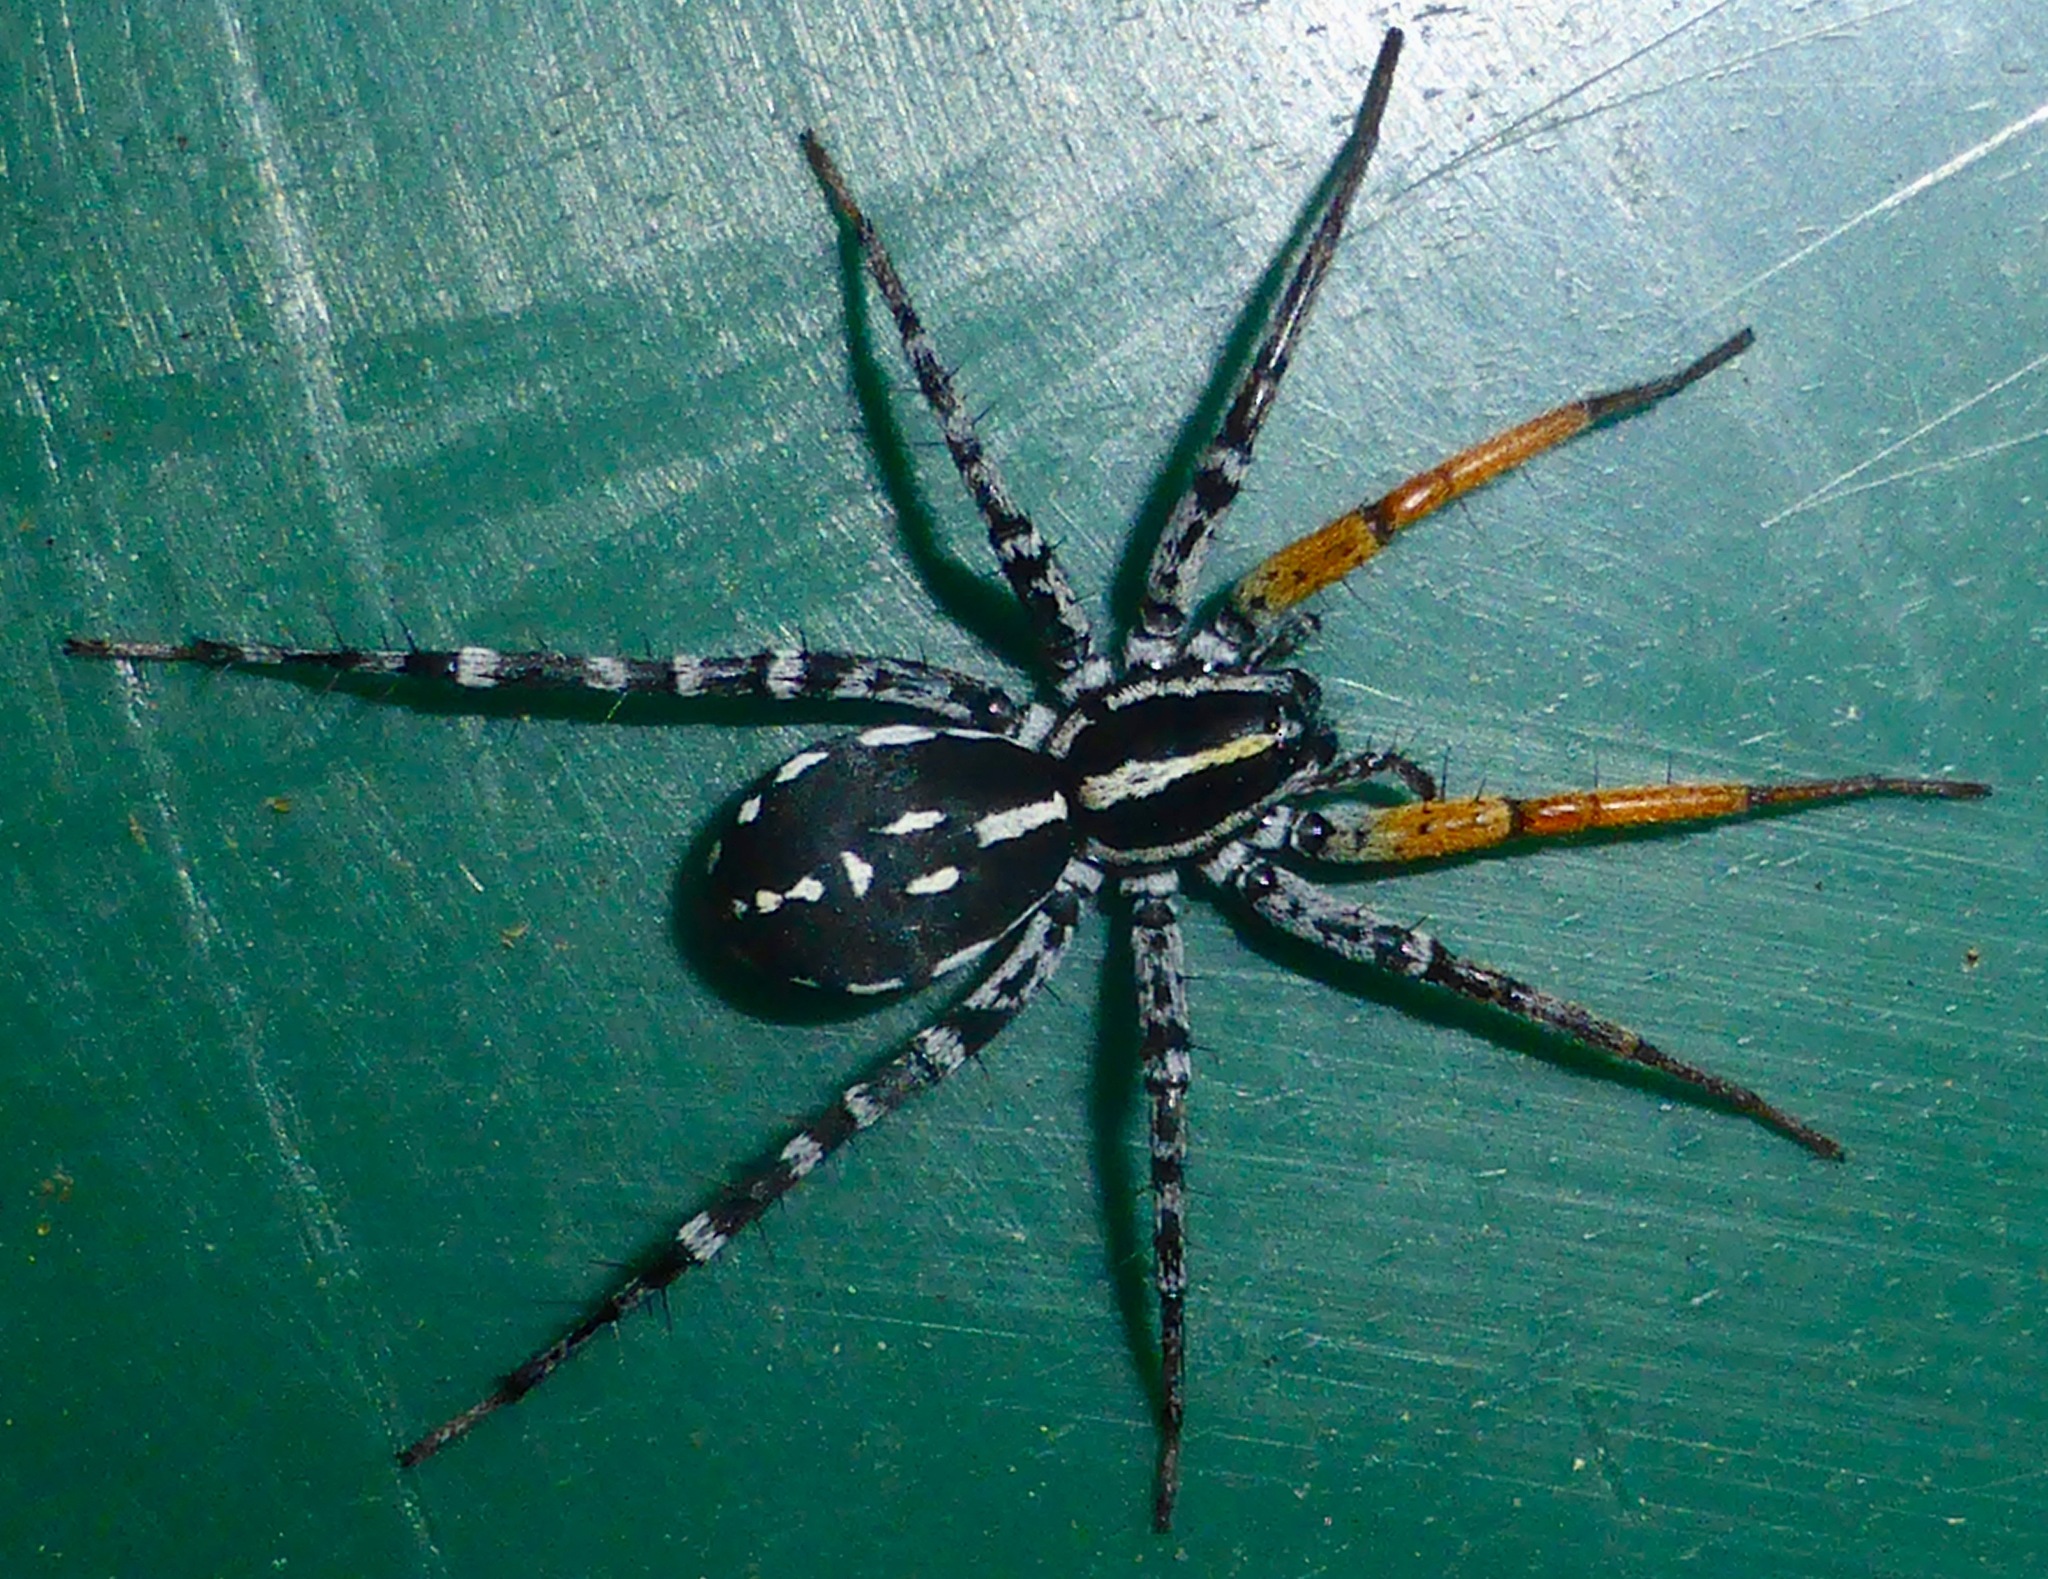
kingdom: Animalia
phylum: Arthropoda
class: Arachnida
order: Araneae
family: Corinnidae
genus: Nyssus
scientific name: Nyssus coloripes
